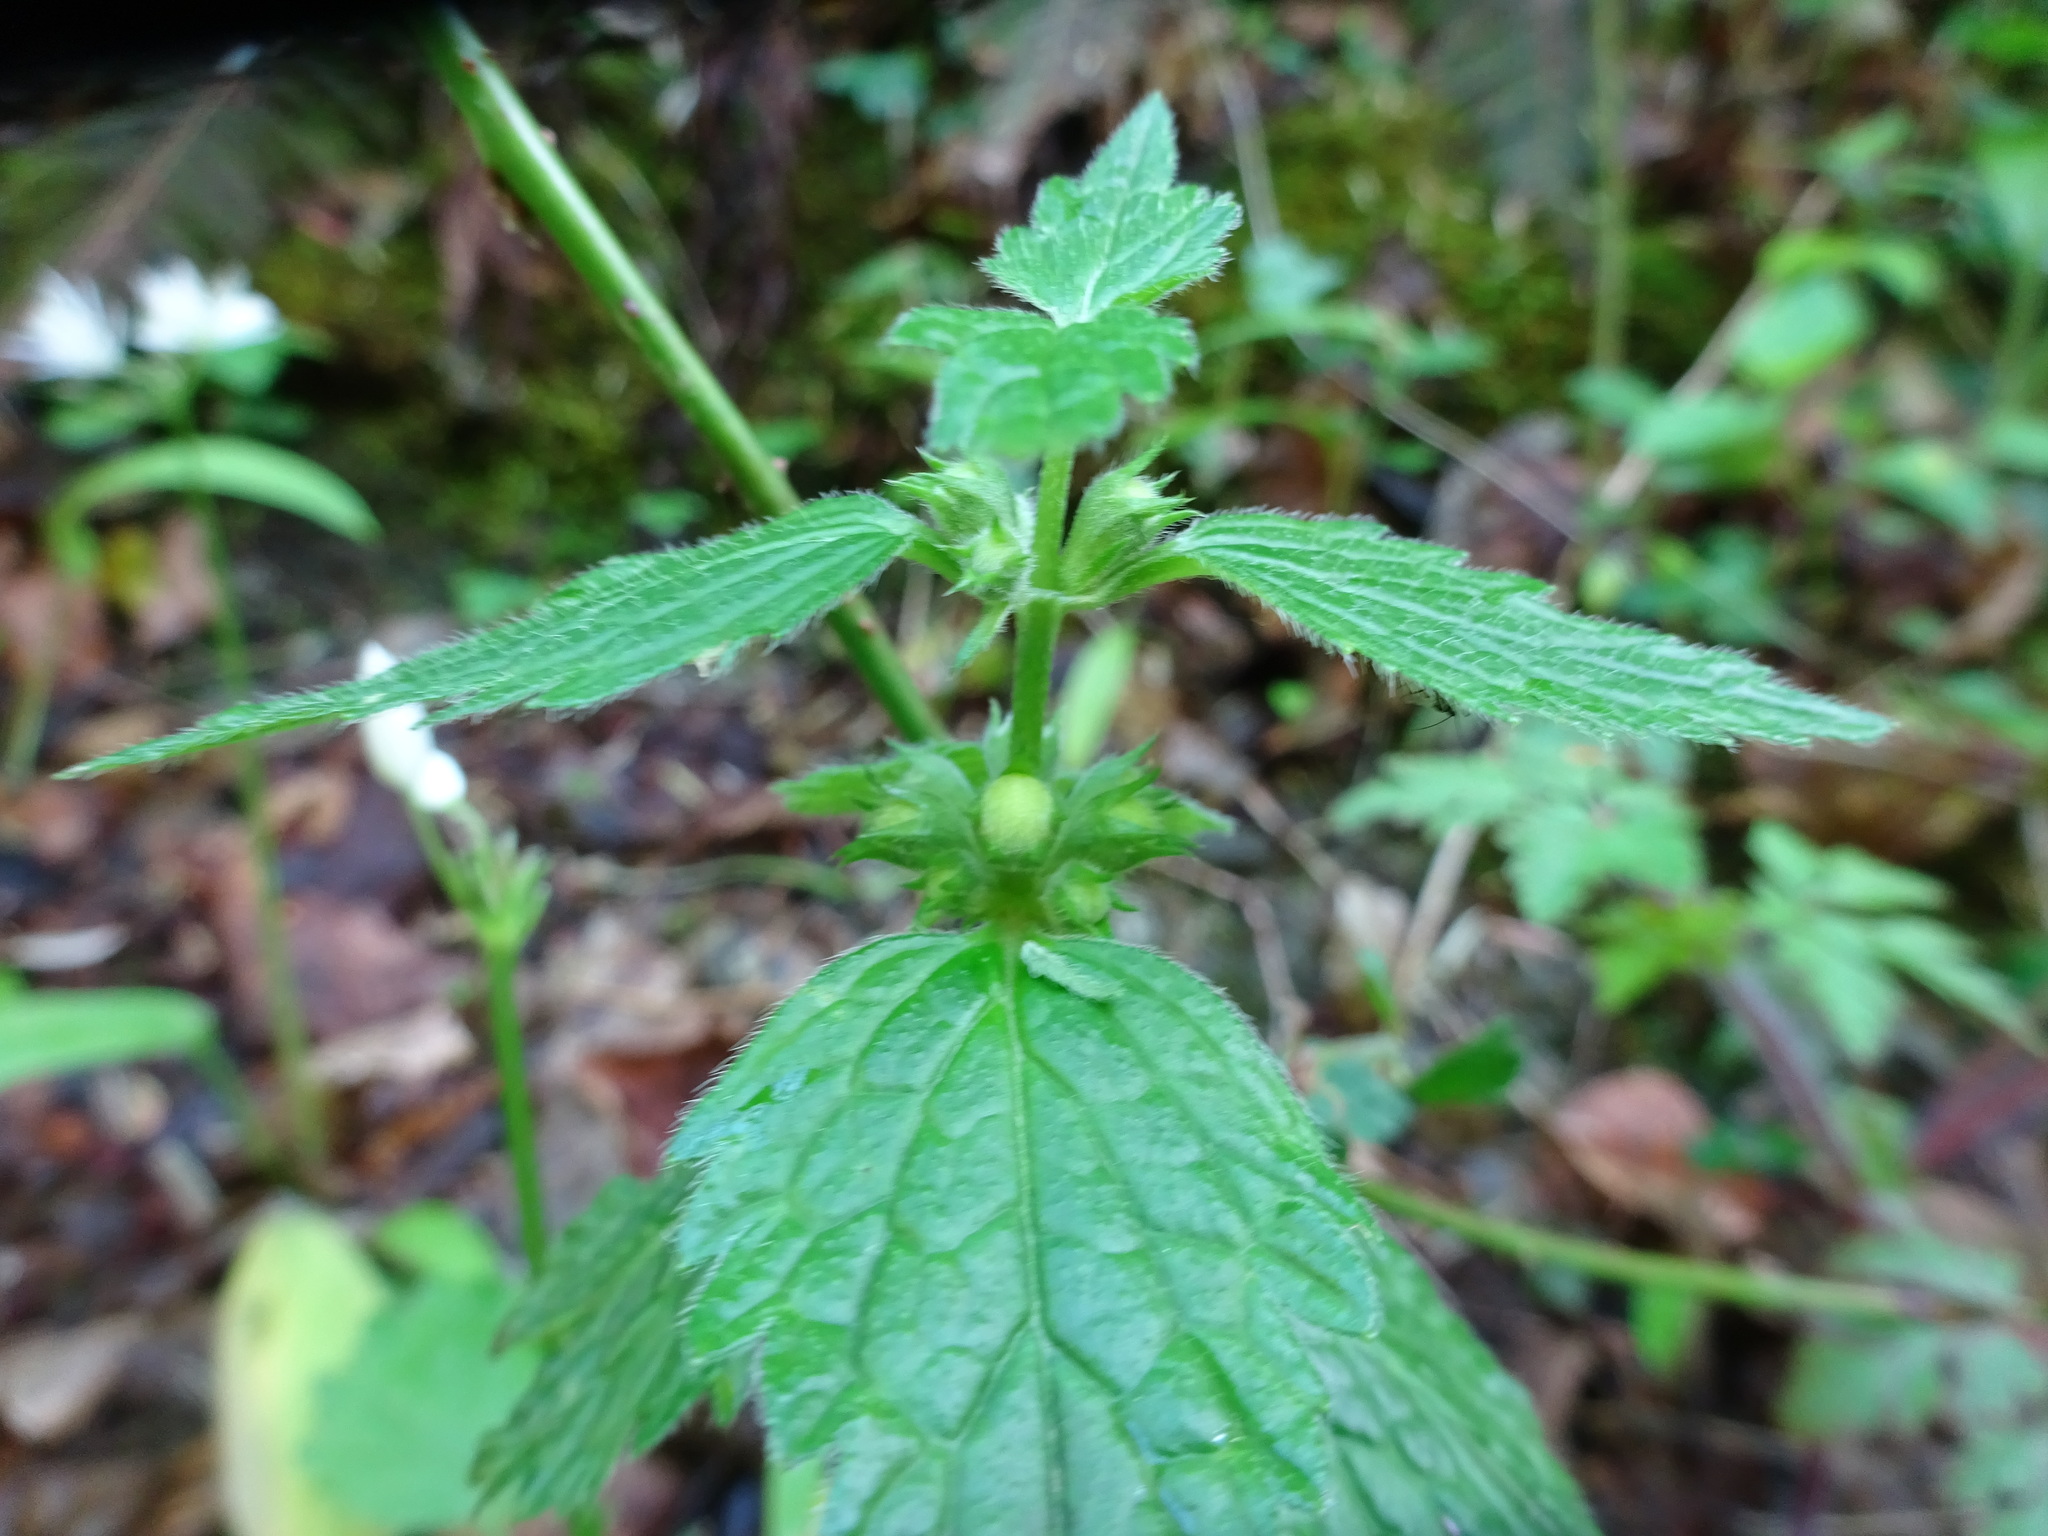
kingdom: Plantae
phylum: Tracheophyta
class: Magnoliopsida
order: Lamiales
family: Lamiaceae
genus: Lamium
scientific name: Lamium galeobdolon
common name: Yellow archangel
